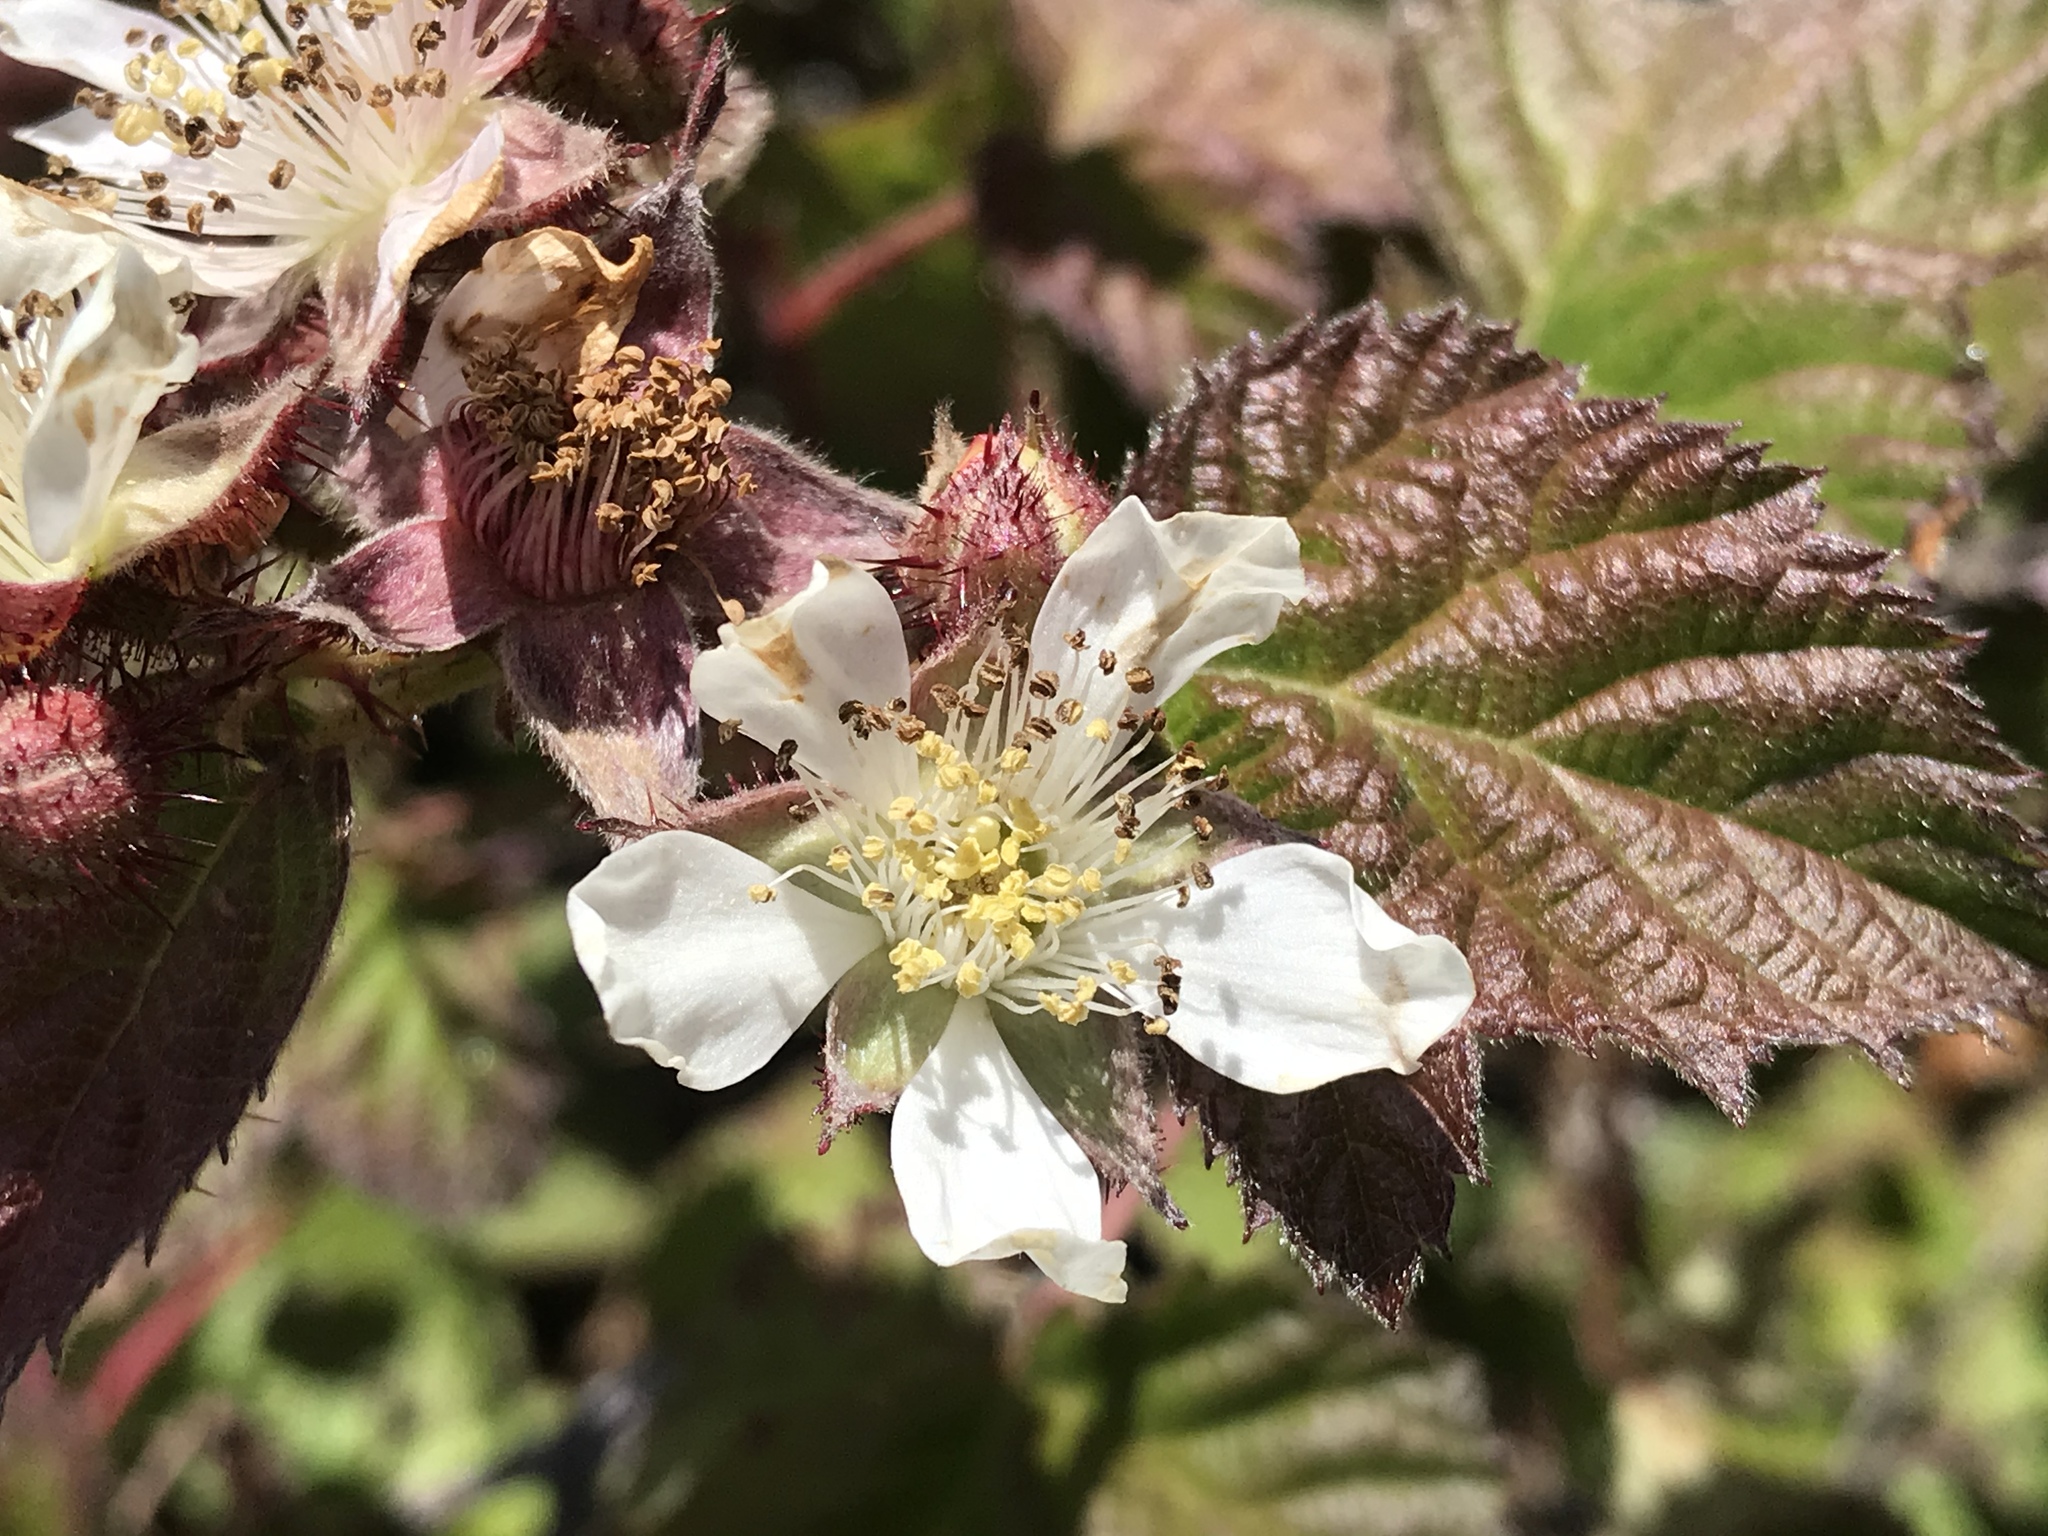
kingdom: Plantae
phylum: Tracheophyta
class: Magnoliopsida
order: Rosales
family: Rosaceae
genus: Rubus
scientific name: Rubus ursinus
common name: Pacific blackberry
